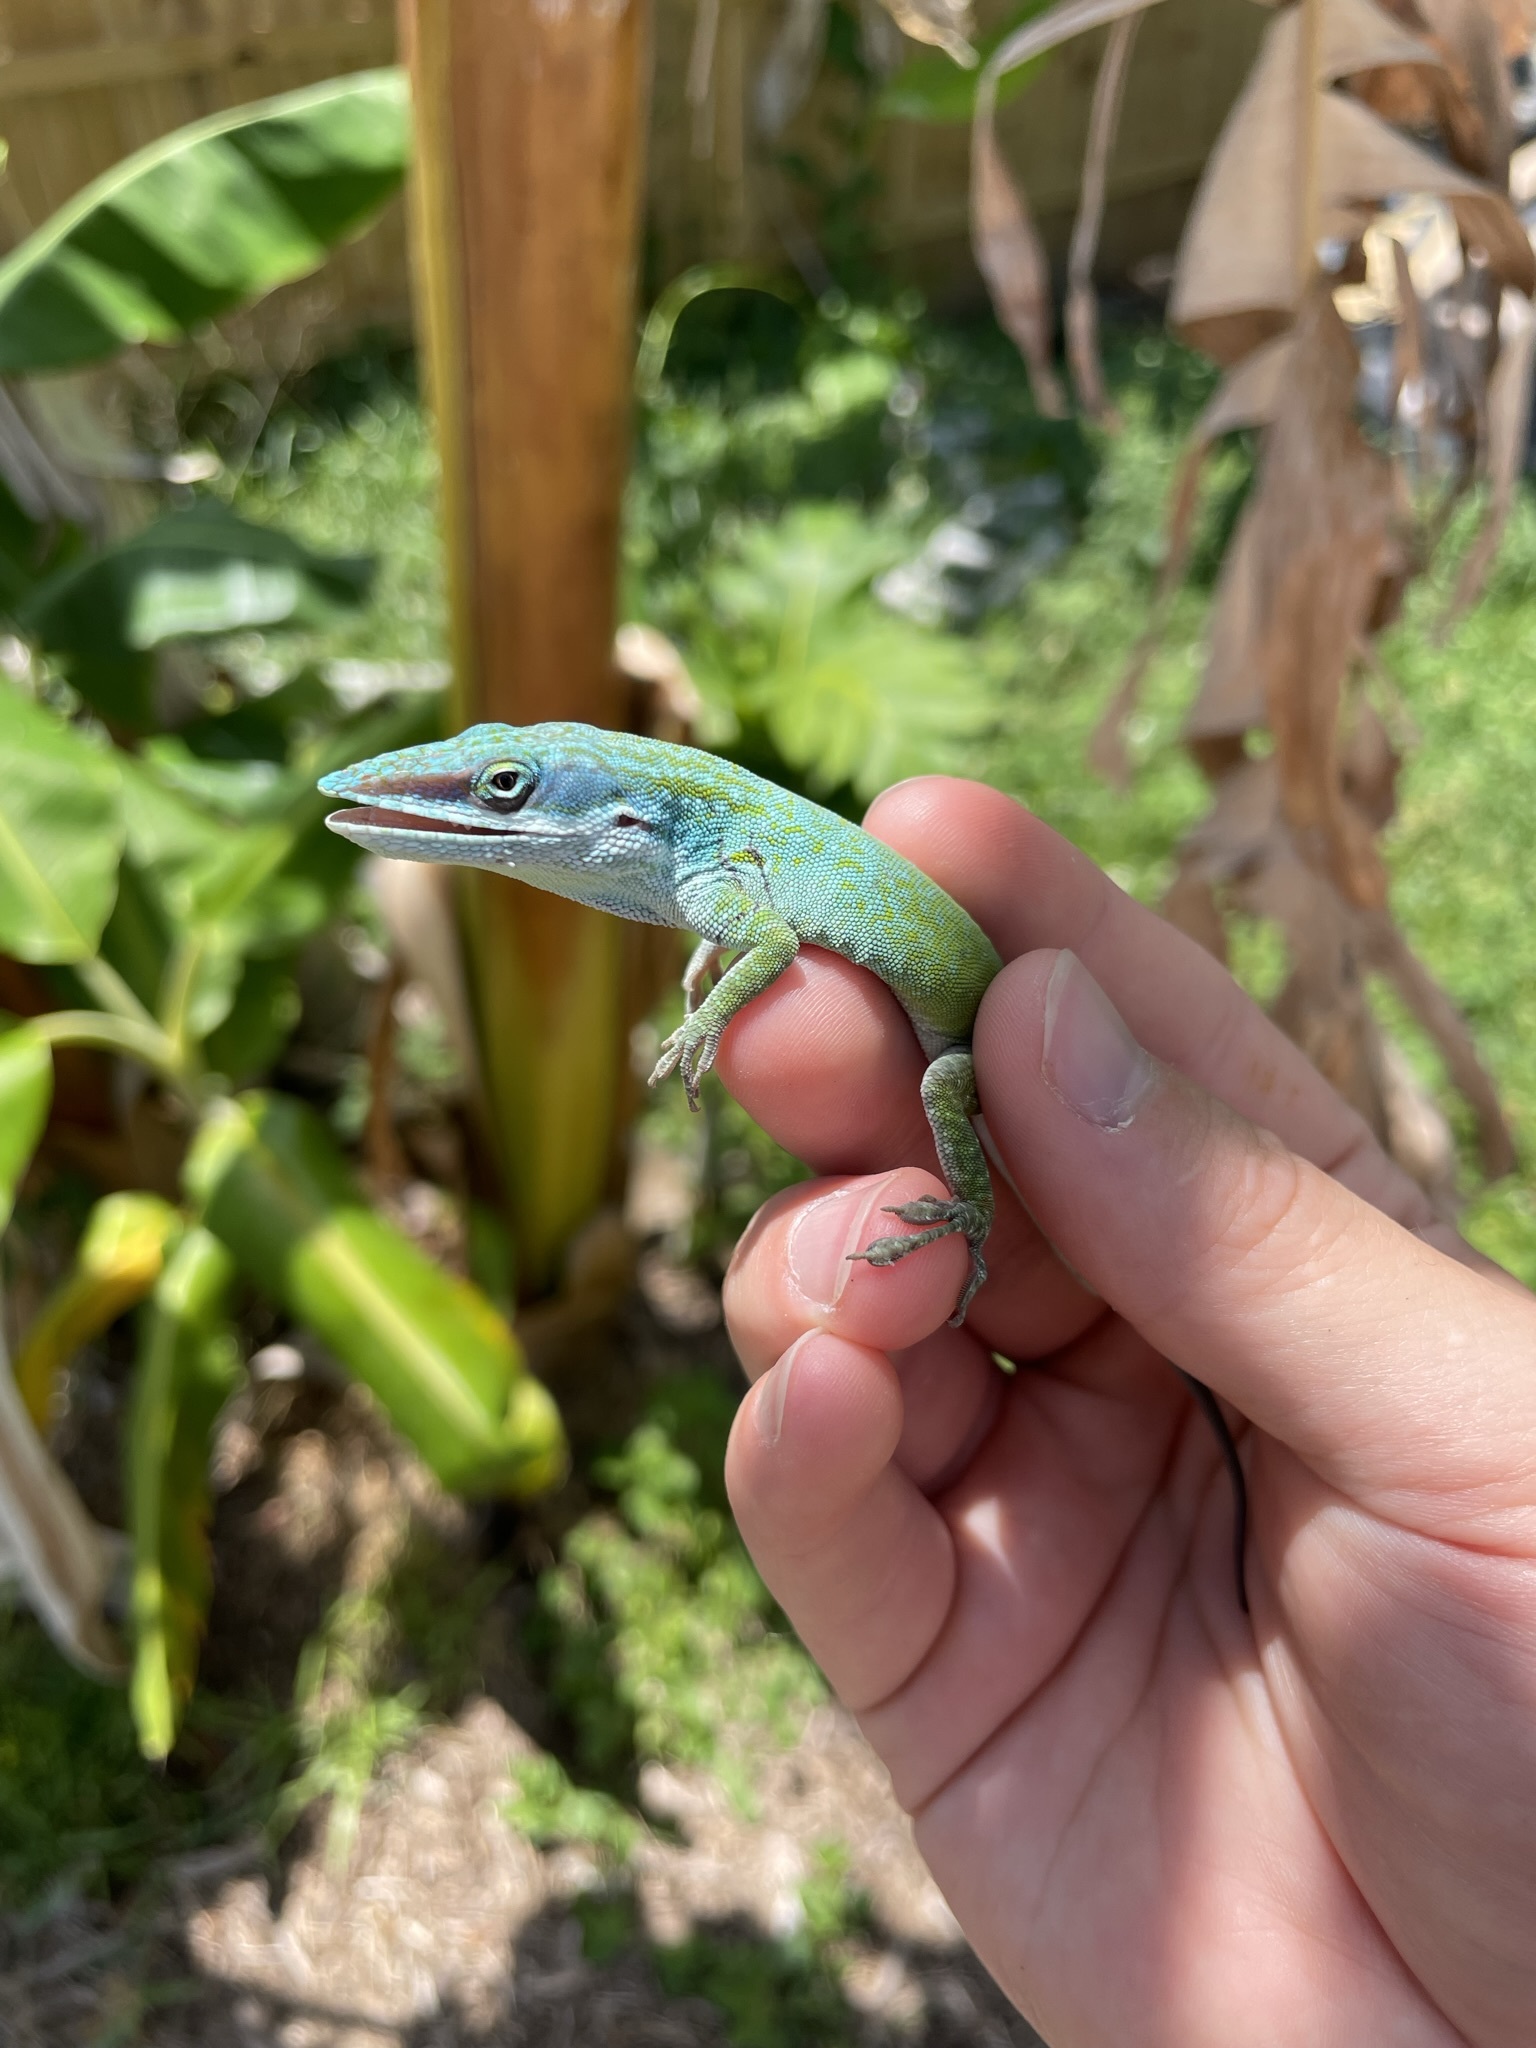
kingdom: Animalia
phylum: Chordata
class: Squamata
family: Dactyloidae
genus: Anolis
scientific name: Anolis allisoni
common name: Allison's anole
